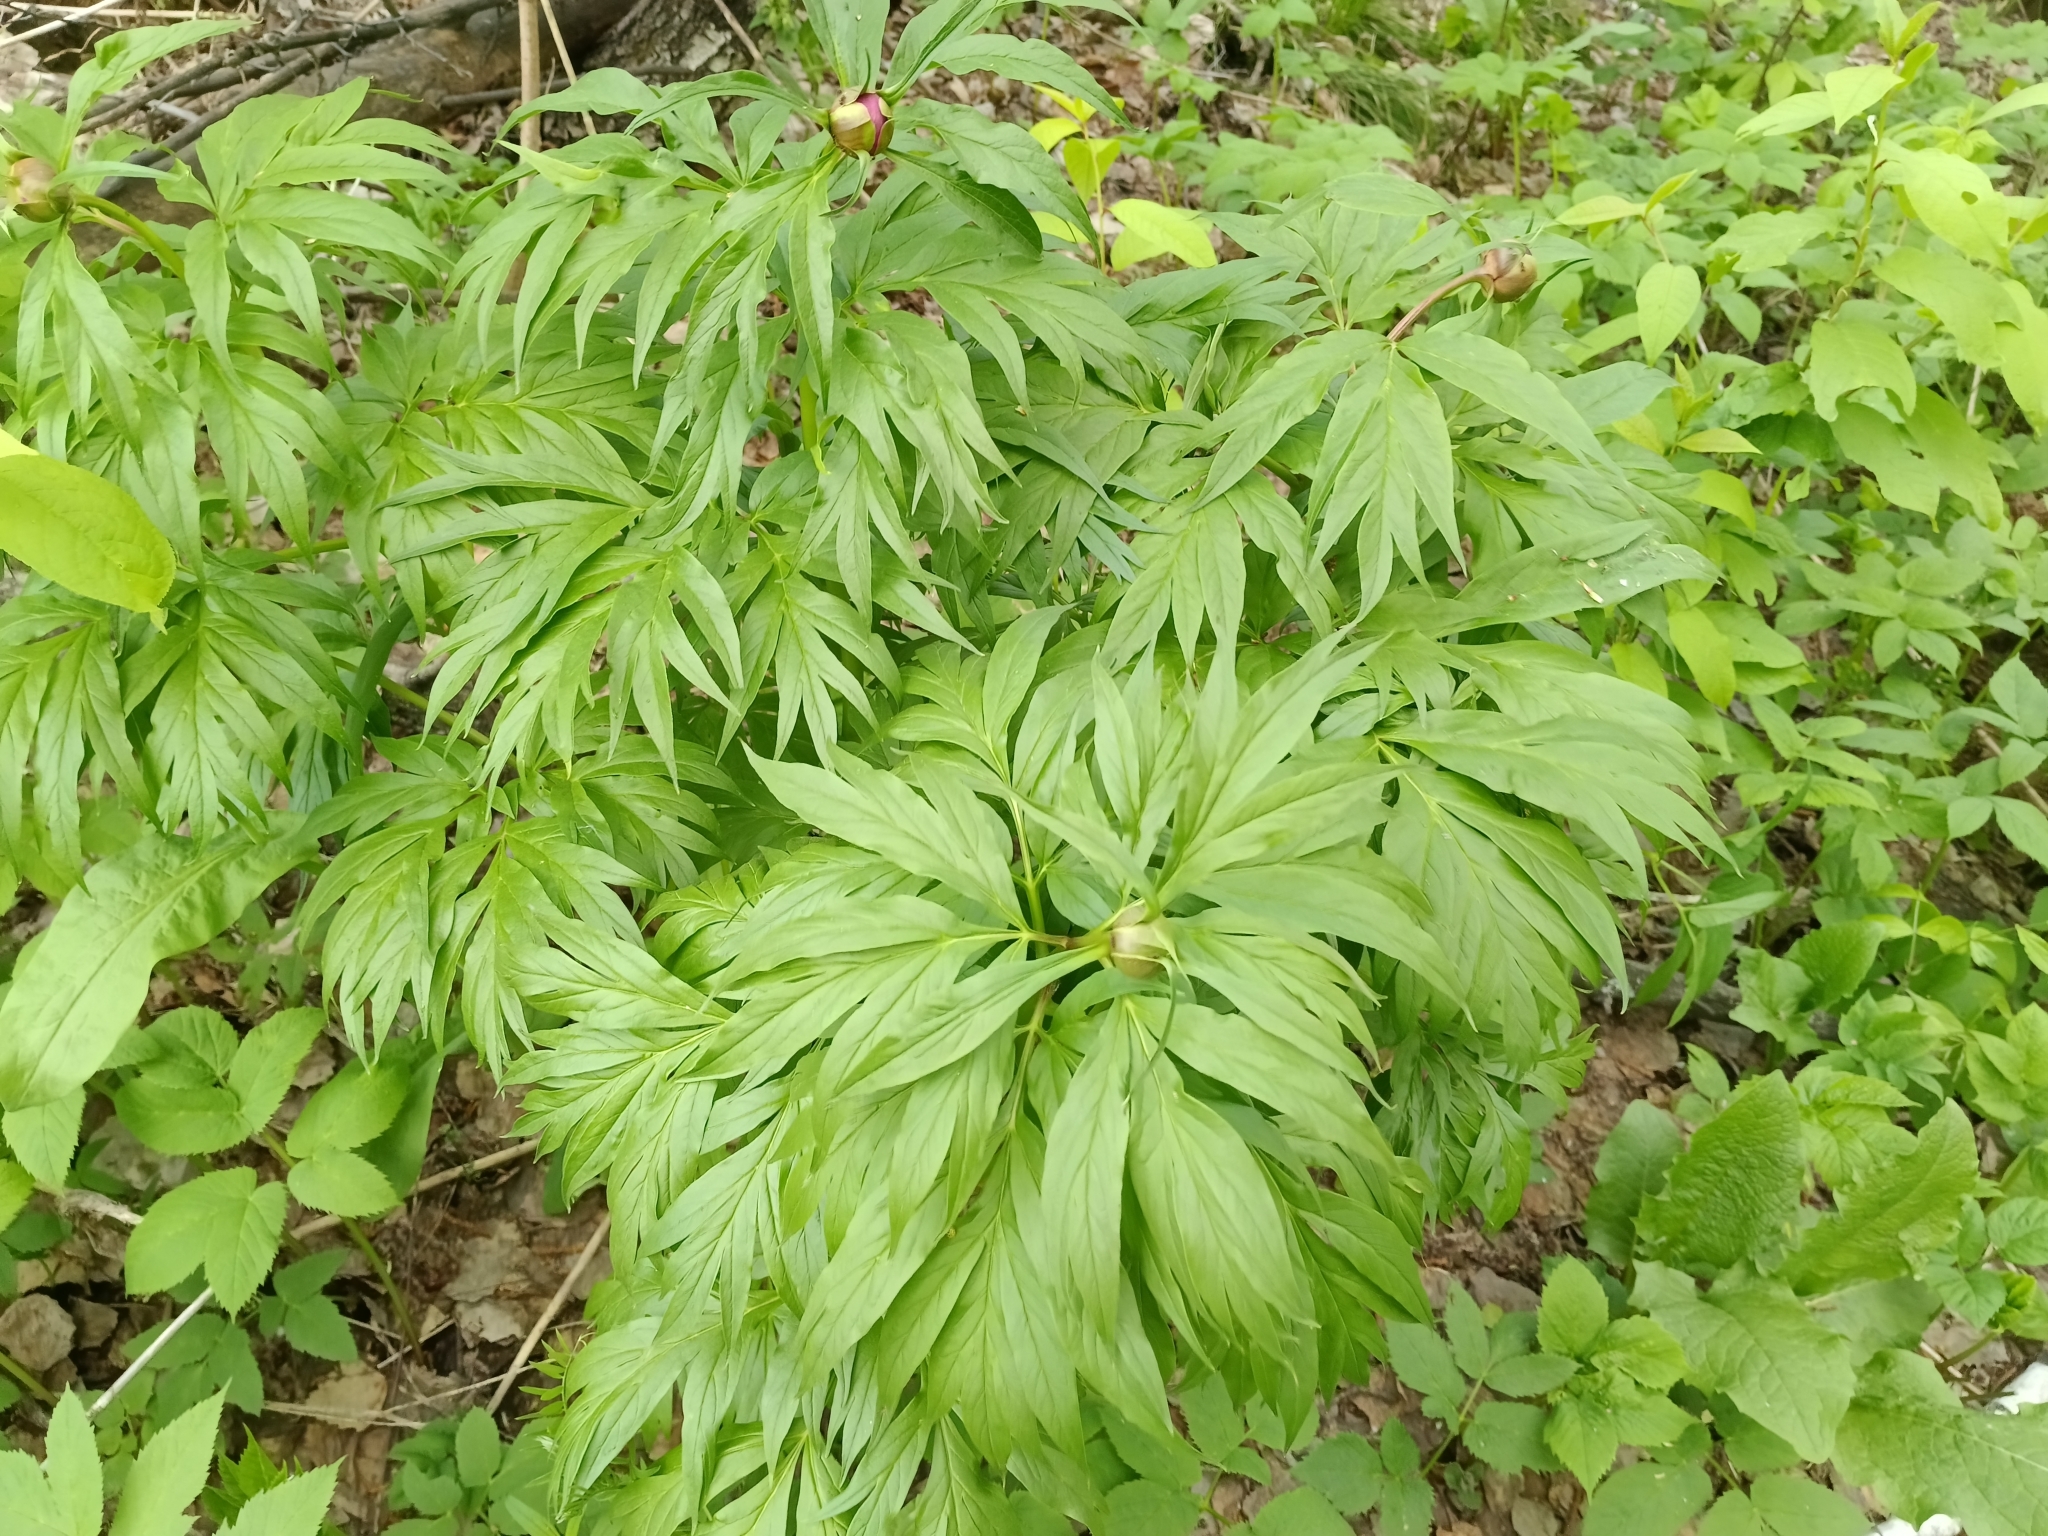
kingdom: Plantae
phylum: Tracheophyta
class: Magnoliopsida
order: Saxifragales
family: Paeoniaceae
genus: Paeonia
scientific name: Paeonia anomala
